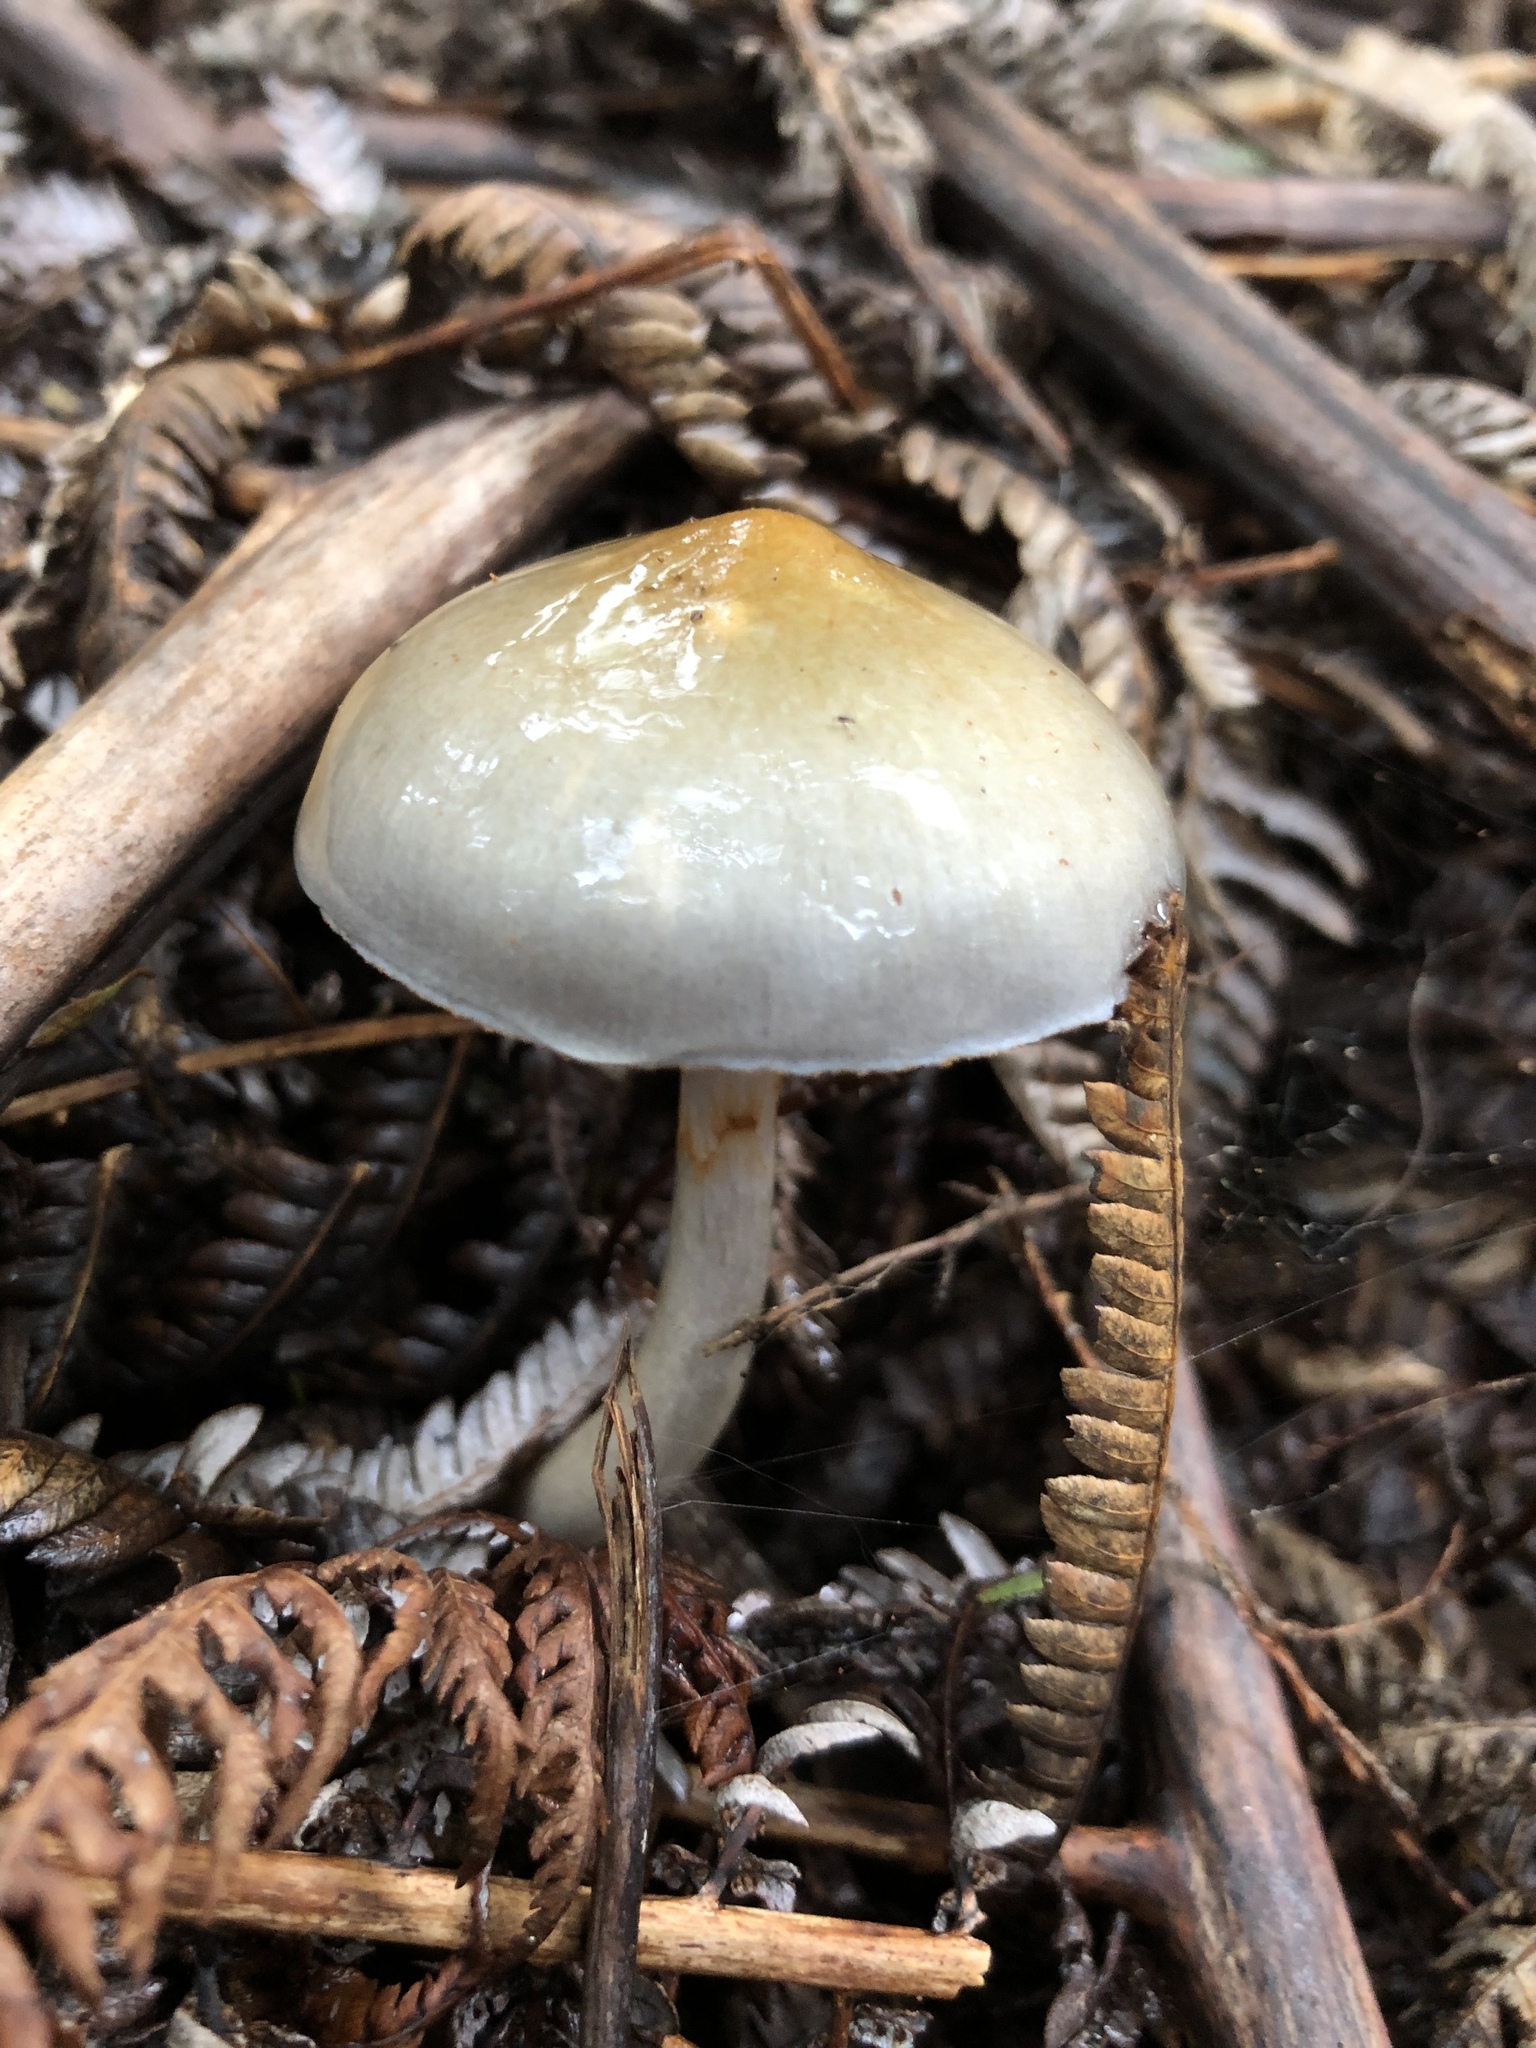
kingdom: Fungi
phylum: Basidiomycota
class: Agaricomycetes
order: Agaricales
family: Cortinariaceae
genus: Cortinarius
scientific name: Cortinarius rotundisporus
